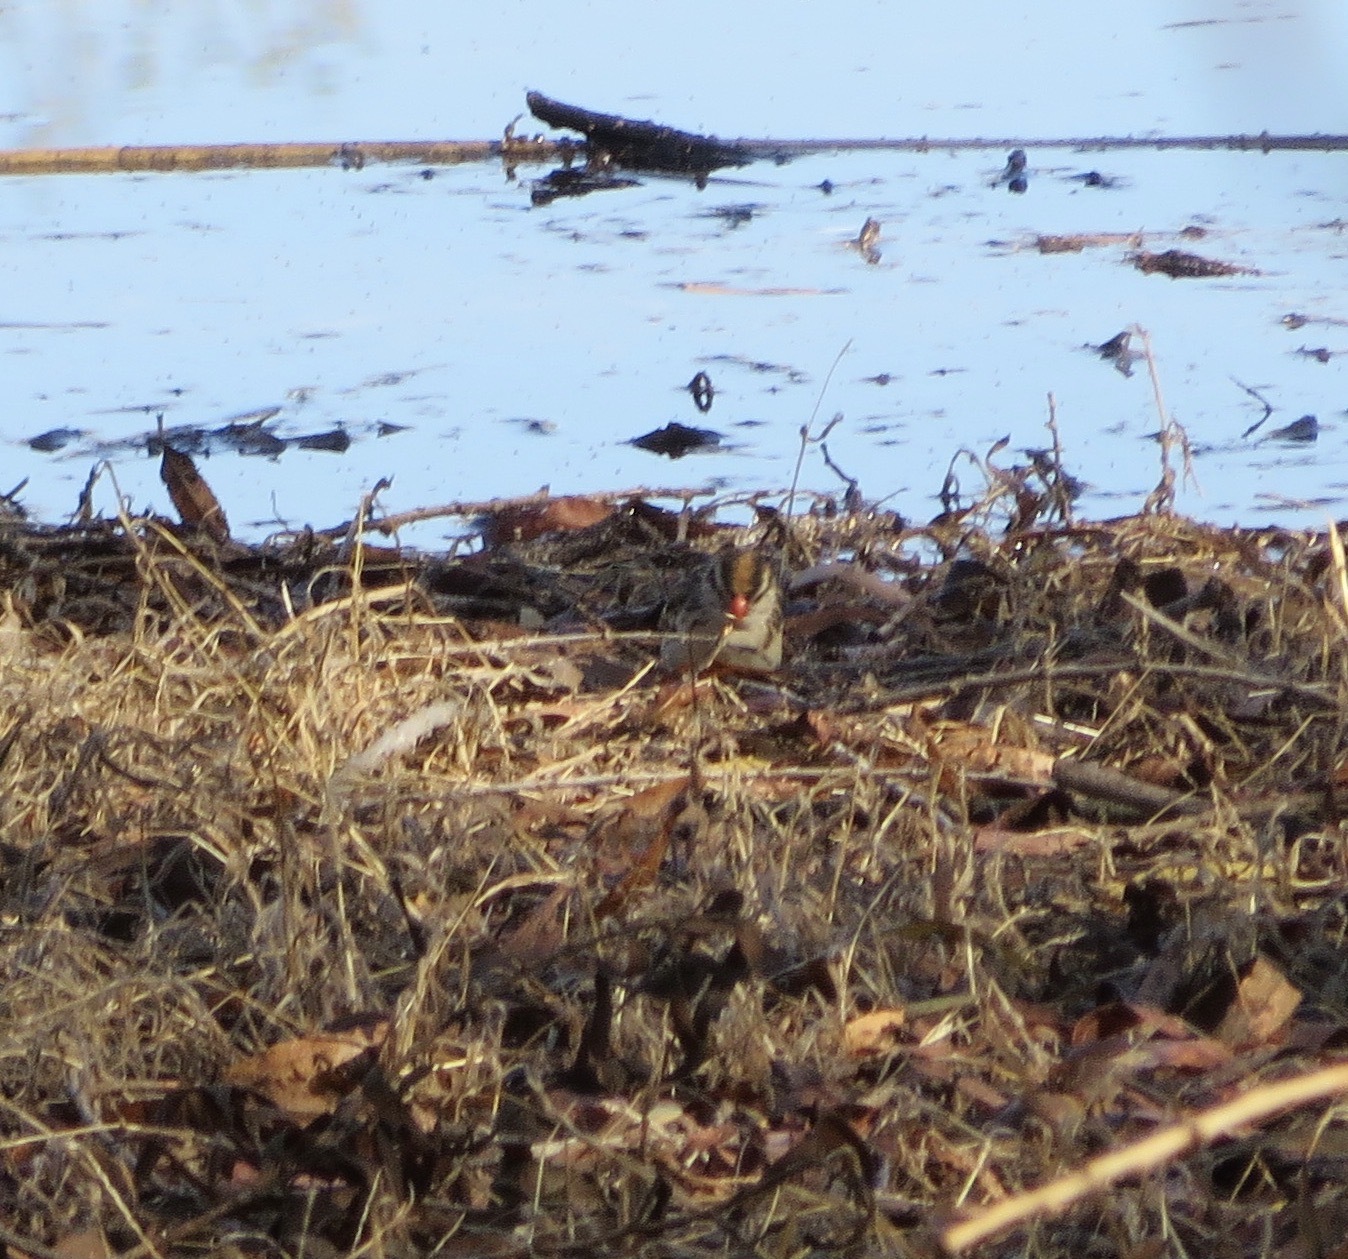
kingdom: Animalia
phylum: Chordata
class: Aves
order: Passeriformes
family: Viduidae
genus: Vidua
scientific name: Vidua macroura
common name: Pin-tailed whydah
